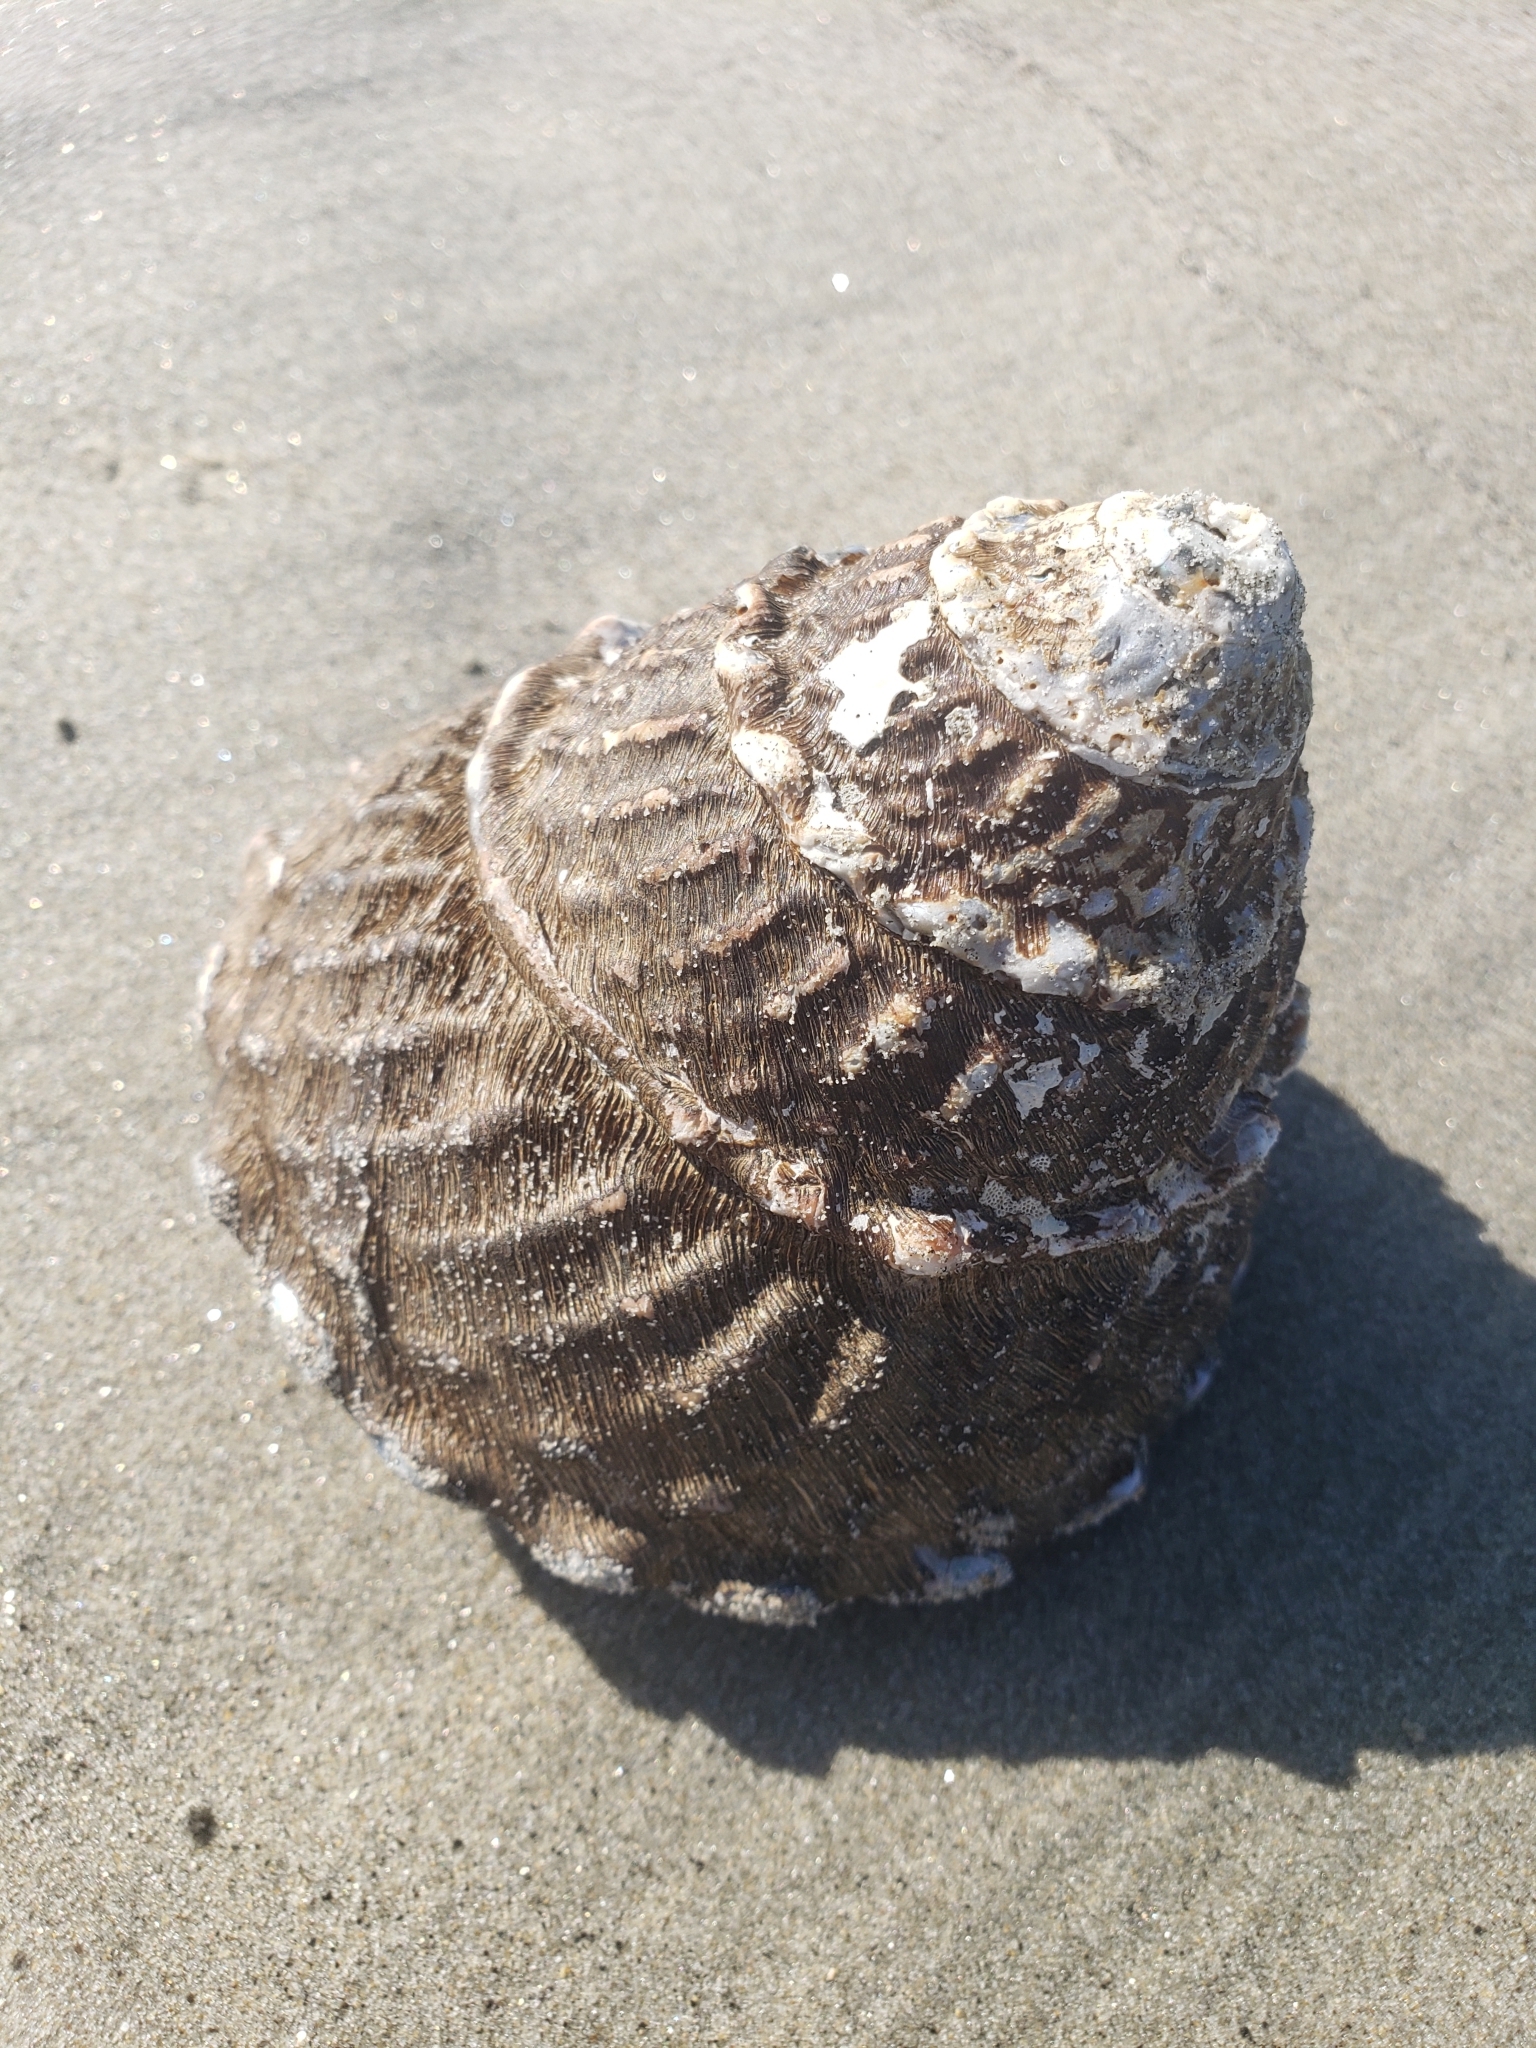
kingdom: Animalia
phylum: Mollusca
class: Gastropoda
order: Trochida
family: Turbinidae
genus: Megastraea
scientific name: Megastraea undosa
